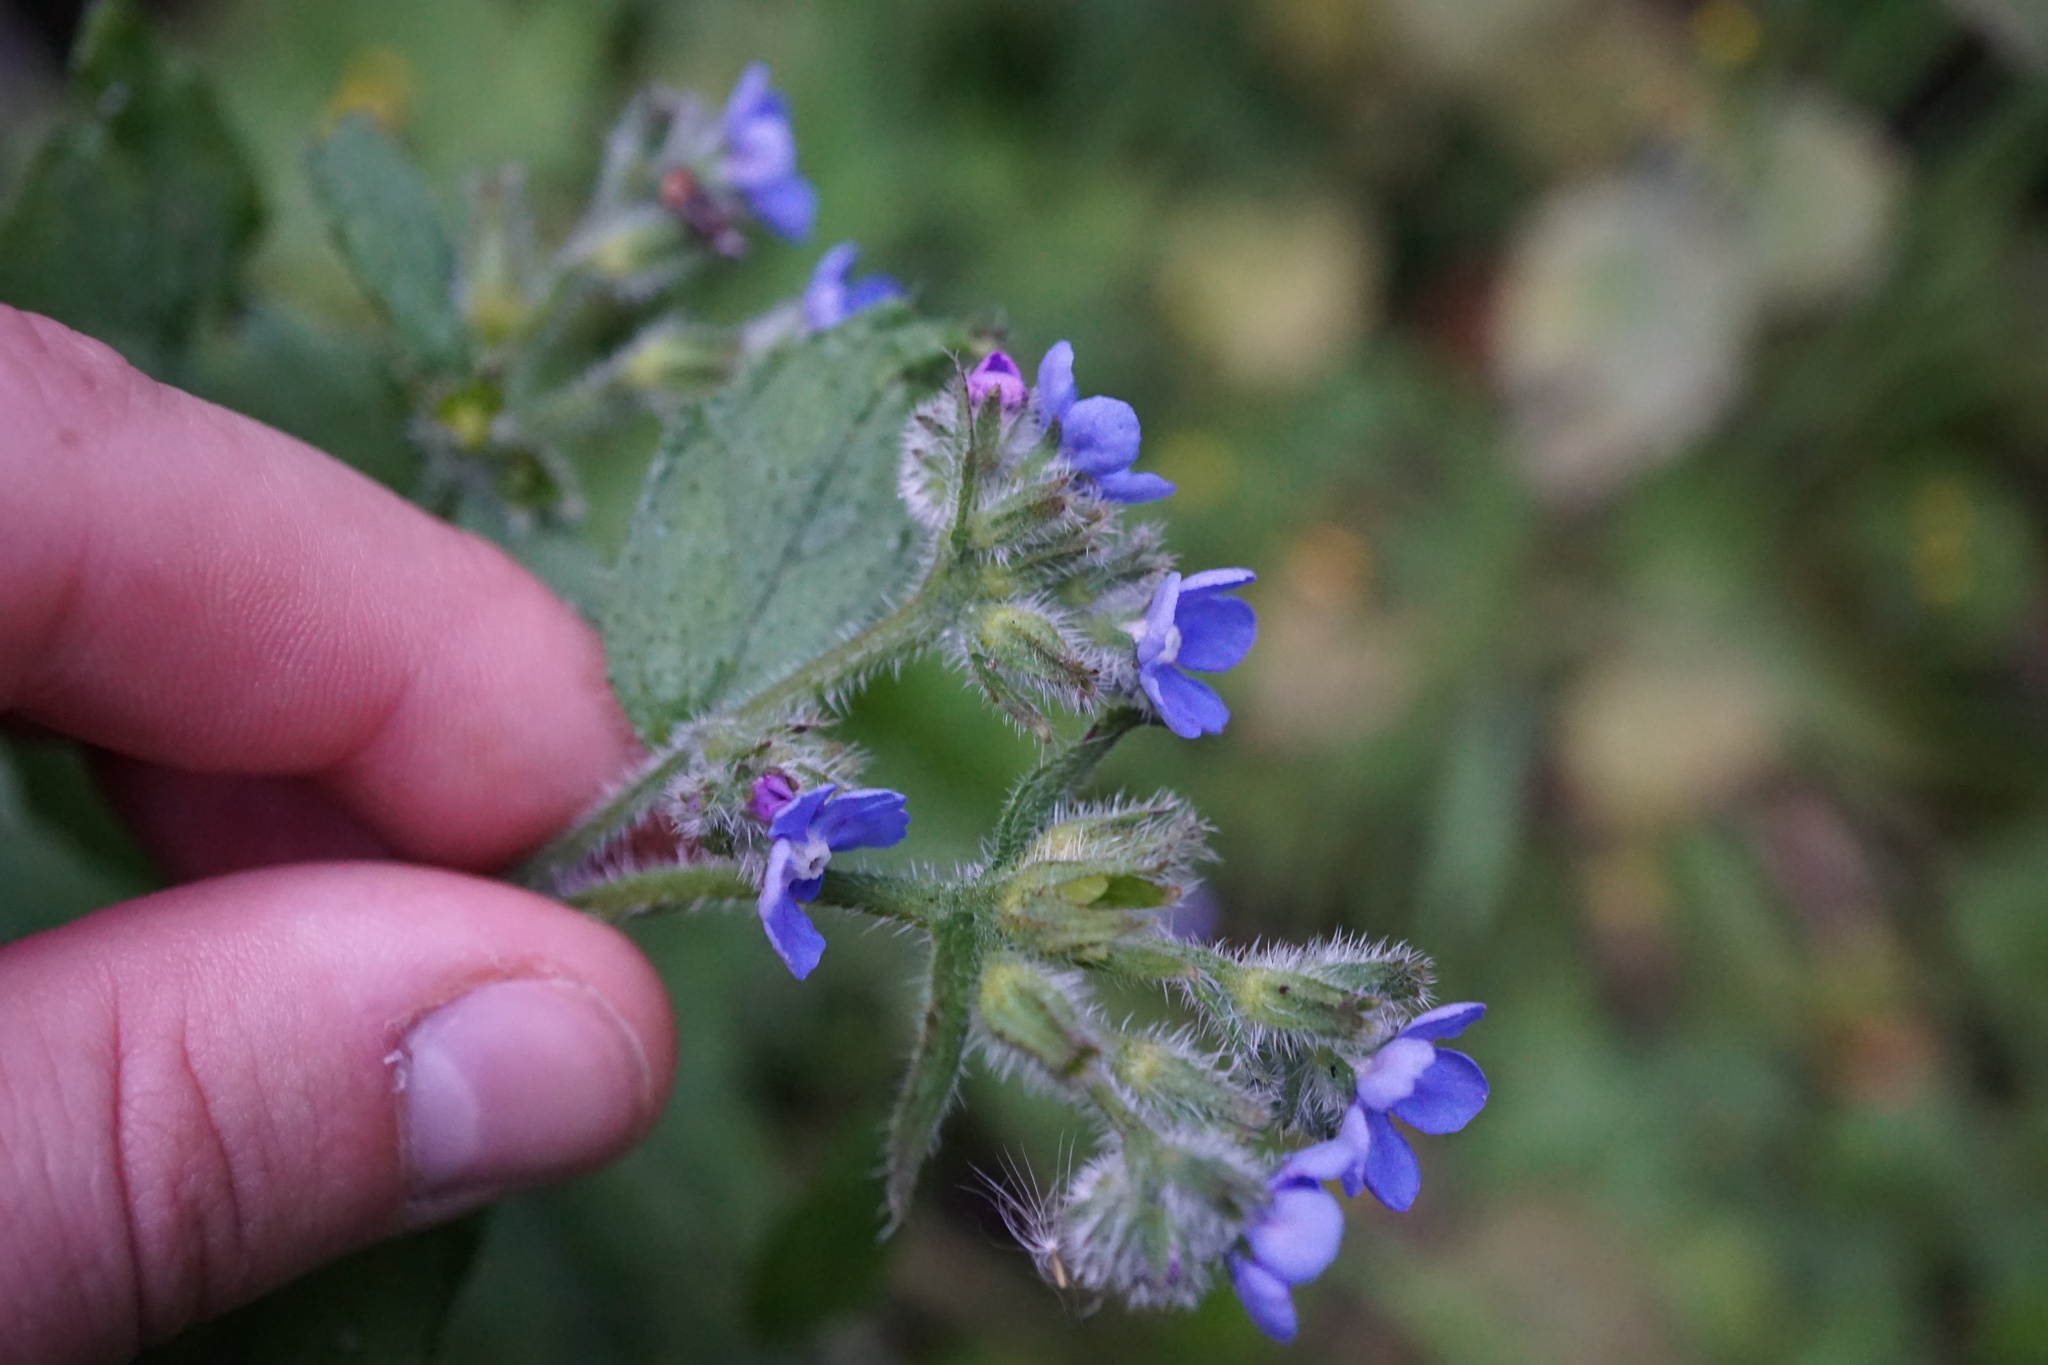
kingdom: Plantae
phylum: Tracheophyta
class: Magnoliopsida
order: Boraginales
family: Boraginaceae
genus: Pentaglottis
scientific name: Pentaglottis sempervirens
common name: Green alkanet
